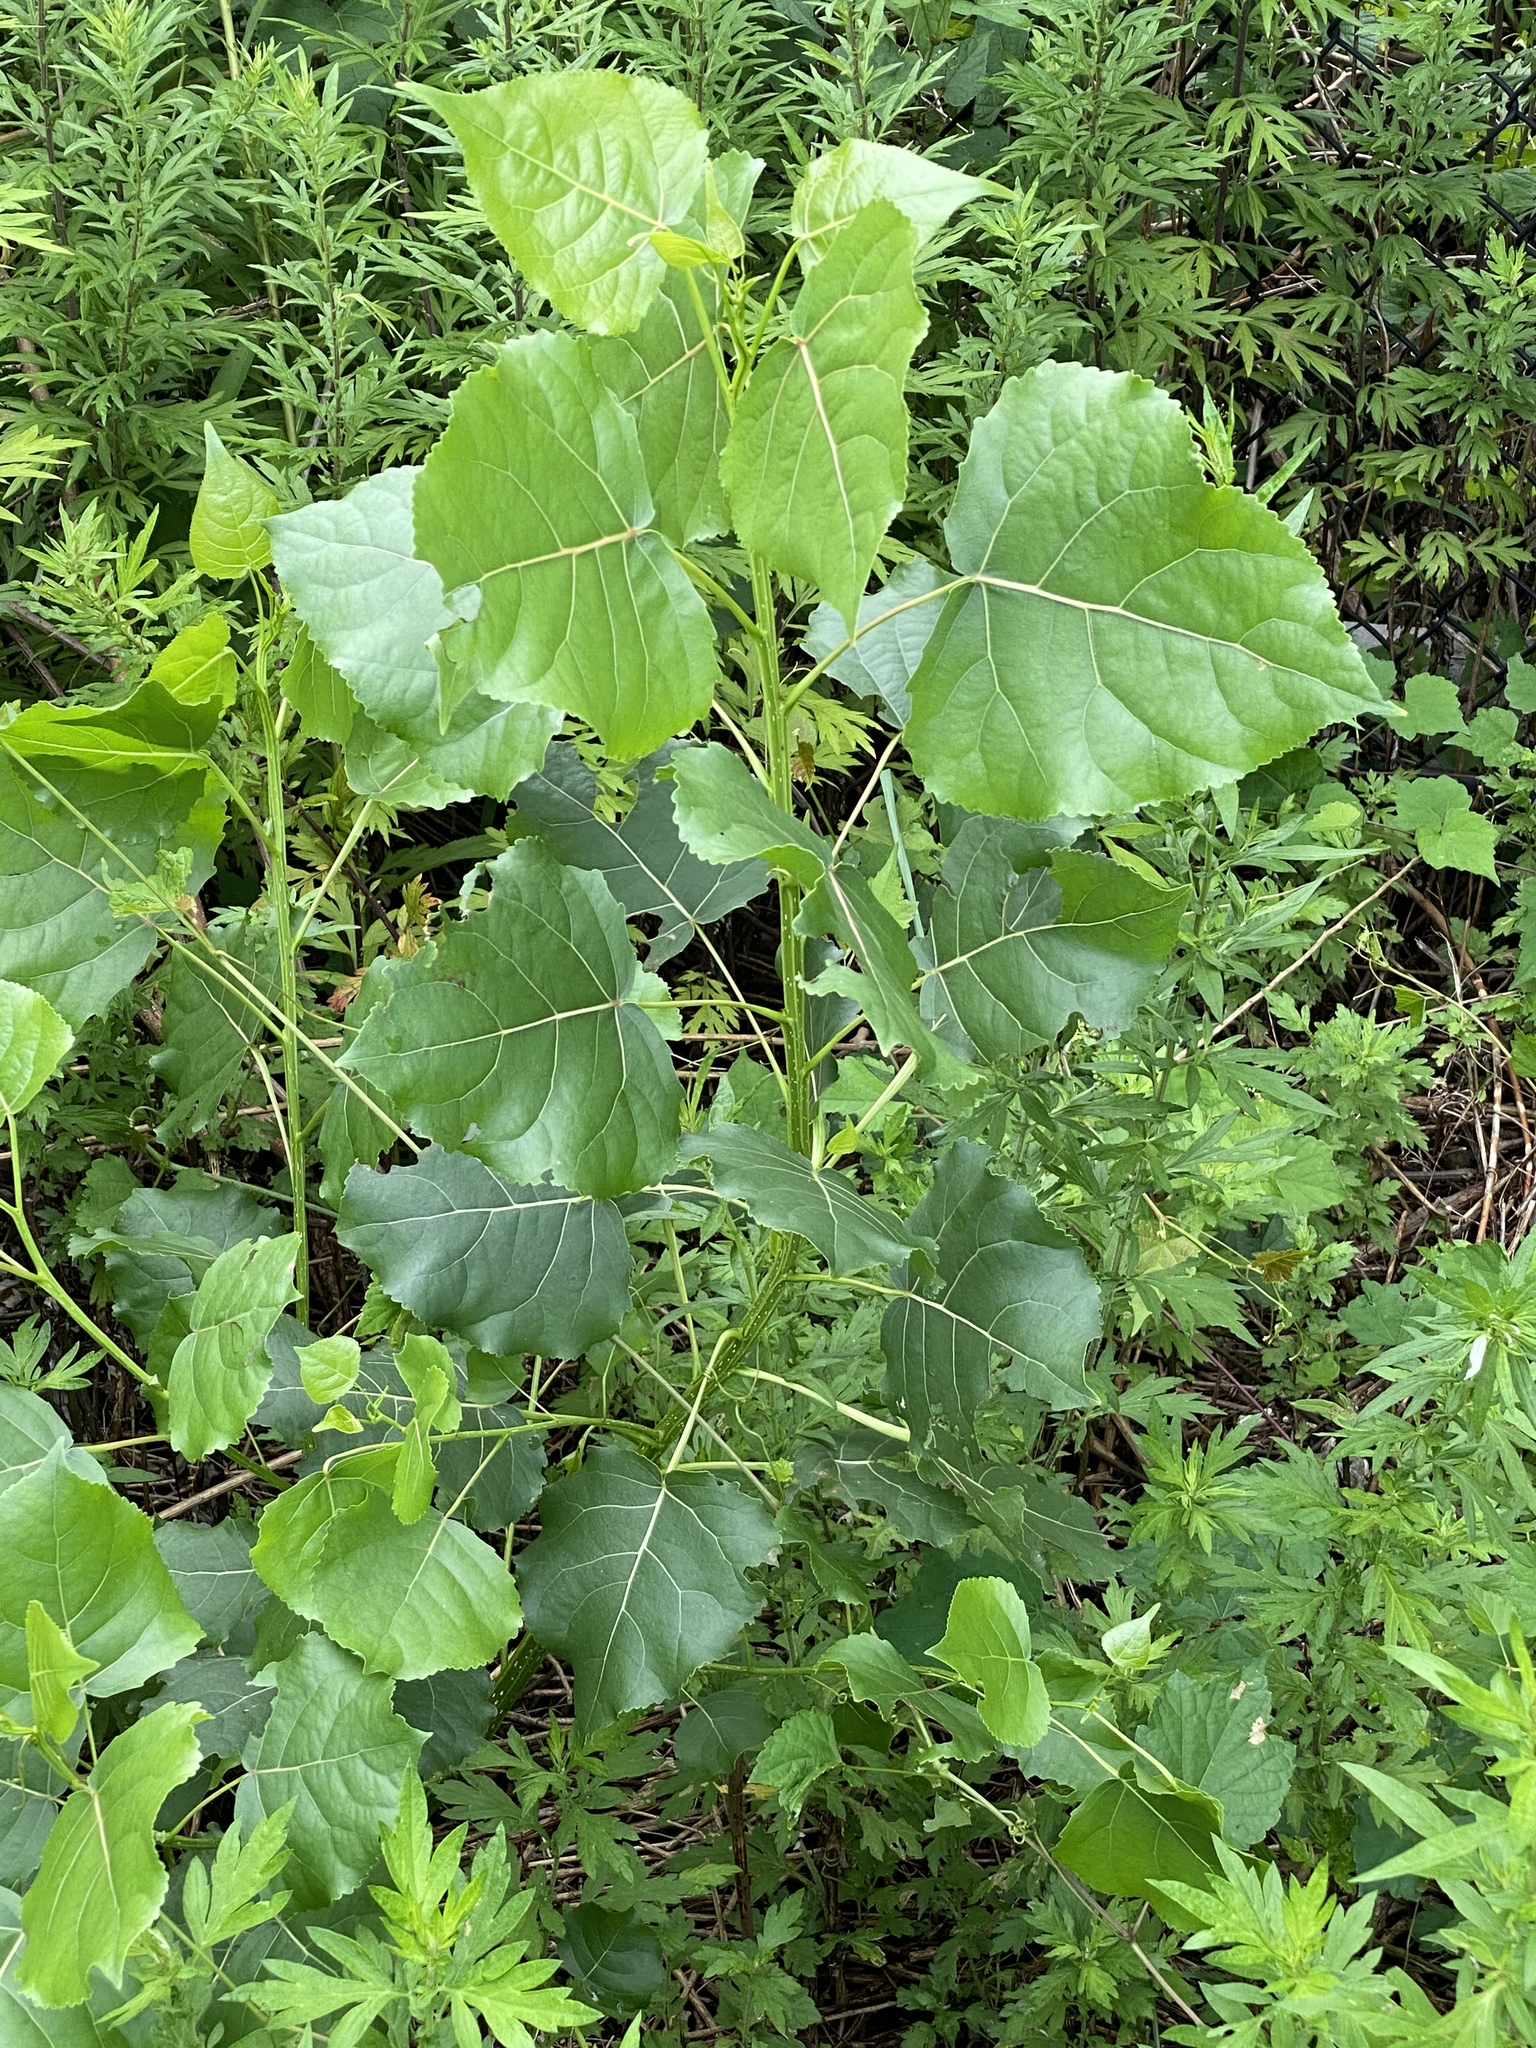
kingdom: Plantae
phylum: Tracheophyta
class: Magnoliopsida
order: Malpighiales
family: Salicaceae
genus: Populus
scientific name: Populus deltoides
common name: Eastern cottonwood
